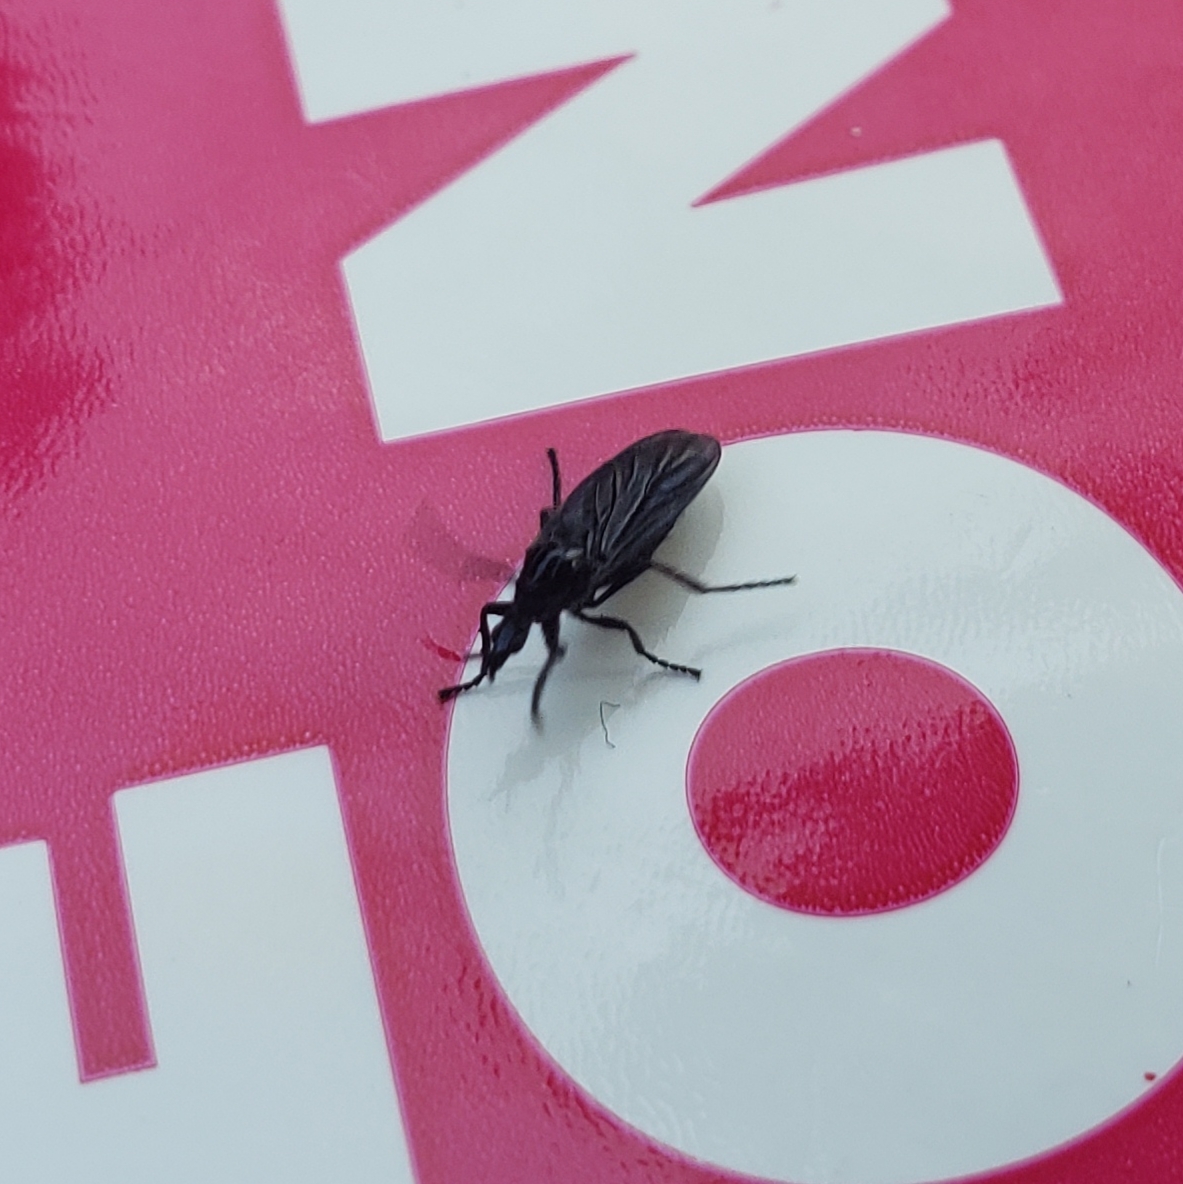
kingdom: Animalia
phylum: Arthropoda
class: Insecta
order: Diptera
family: Bibionidae
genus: Dilophus
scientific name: Dilophus orbatus
